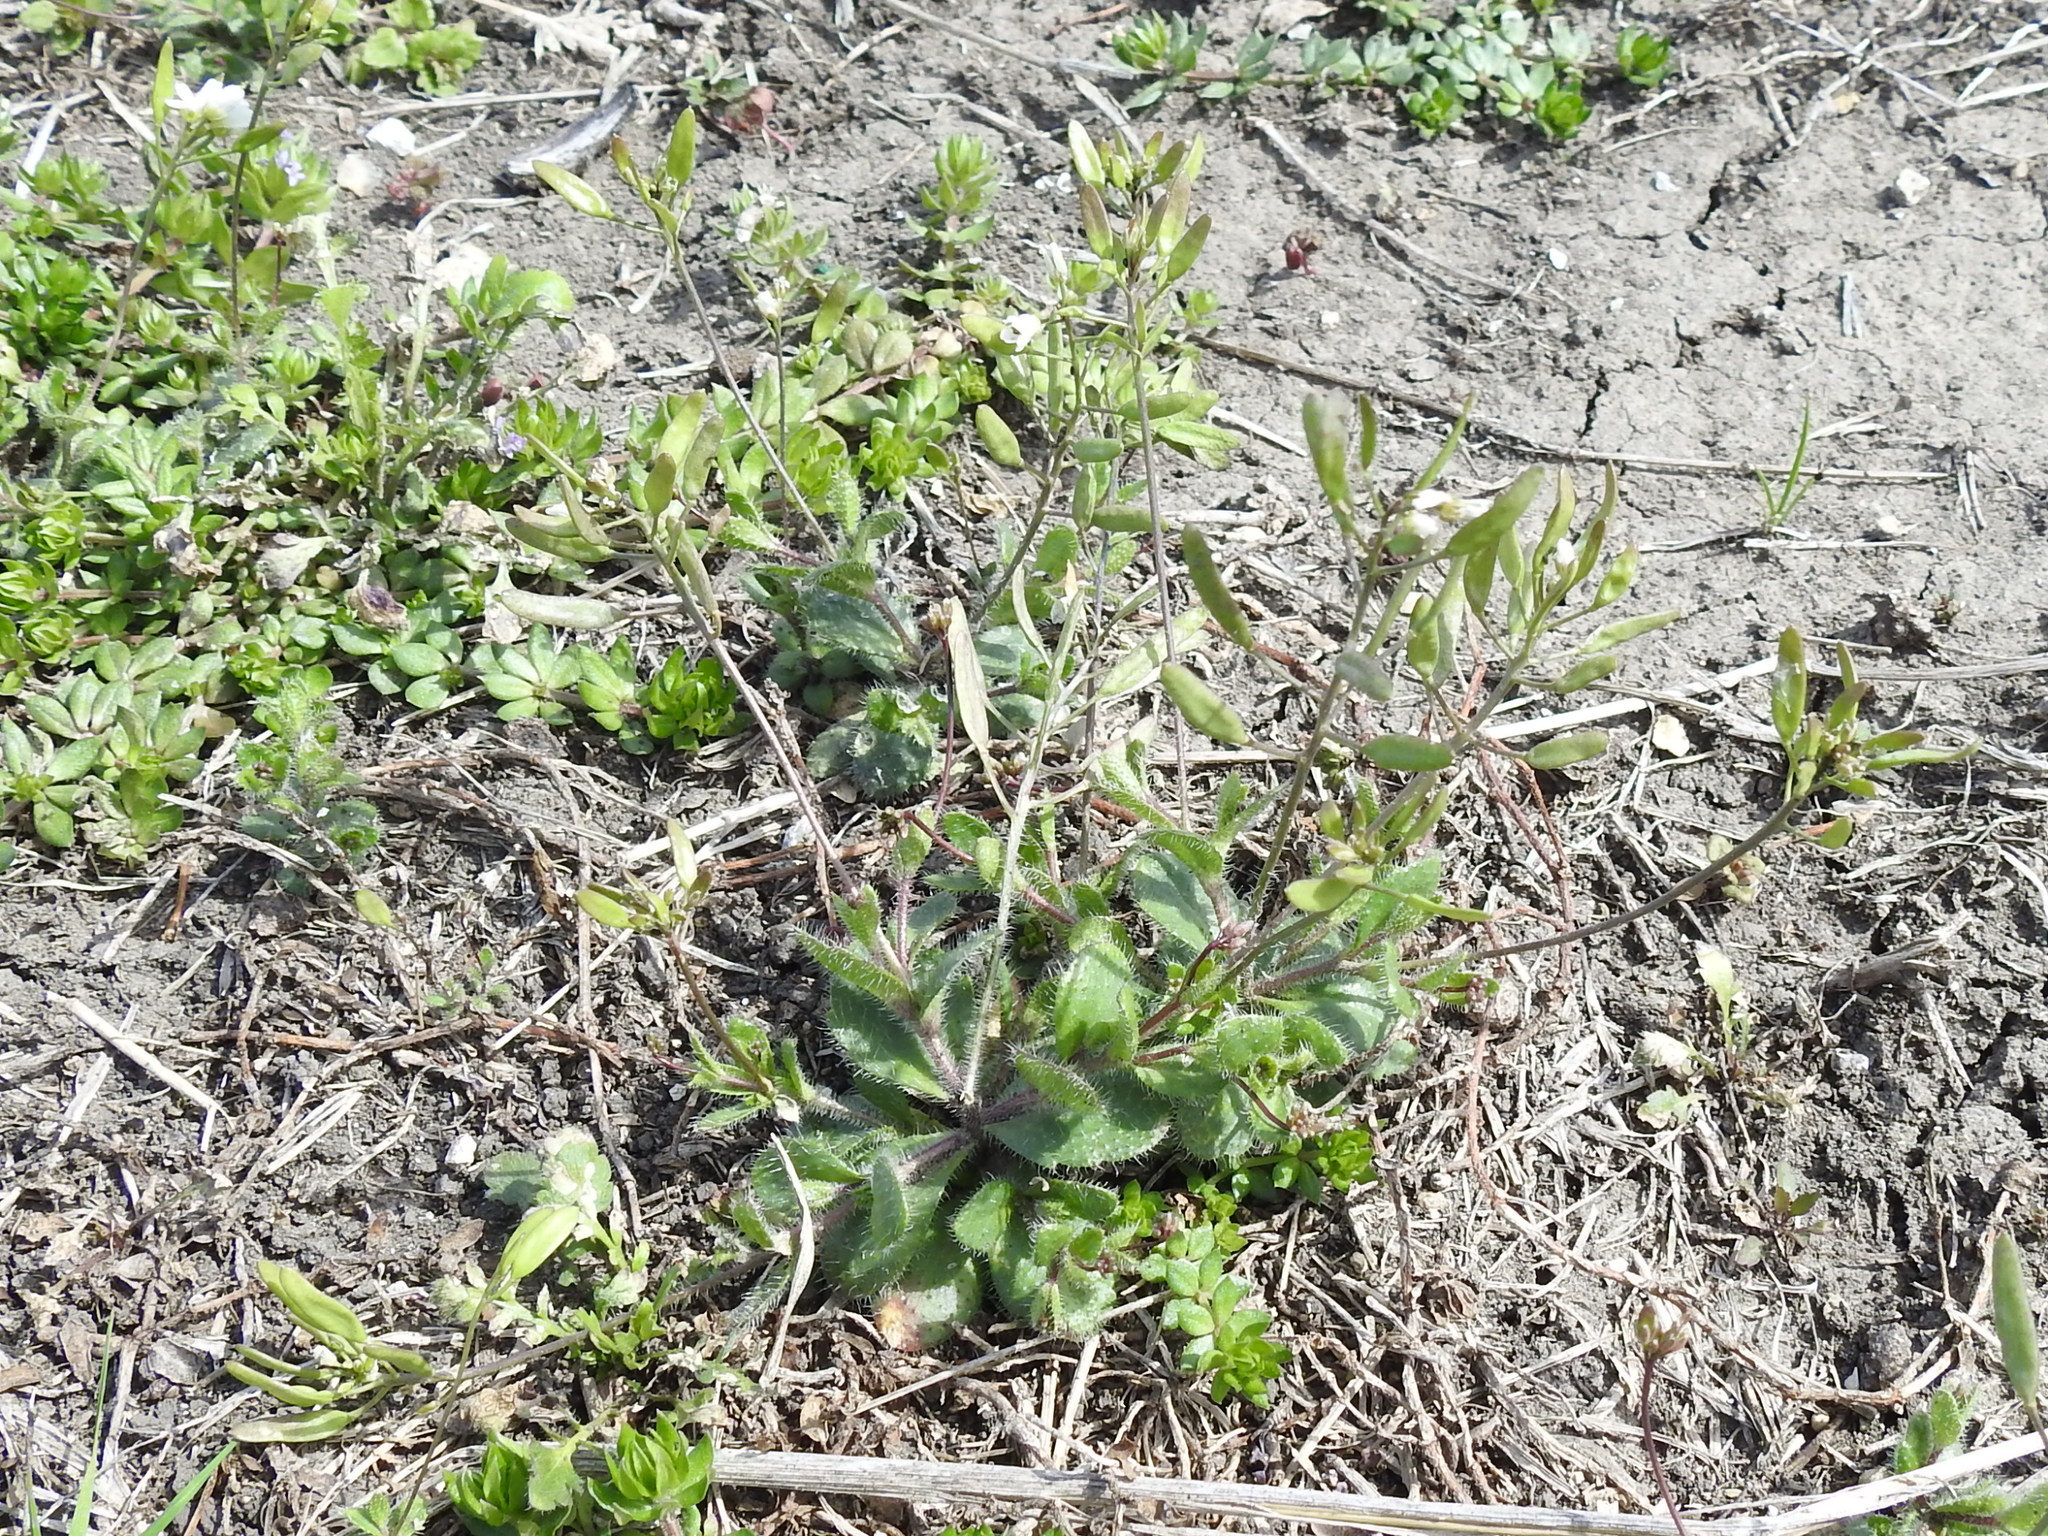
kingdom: Plantae
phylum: Tracheophyta
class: Magnoliopsida
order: Brassicales
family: Brassicaceae
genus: Tomostima
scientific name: Tomostima reptans
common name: Carolina draba
